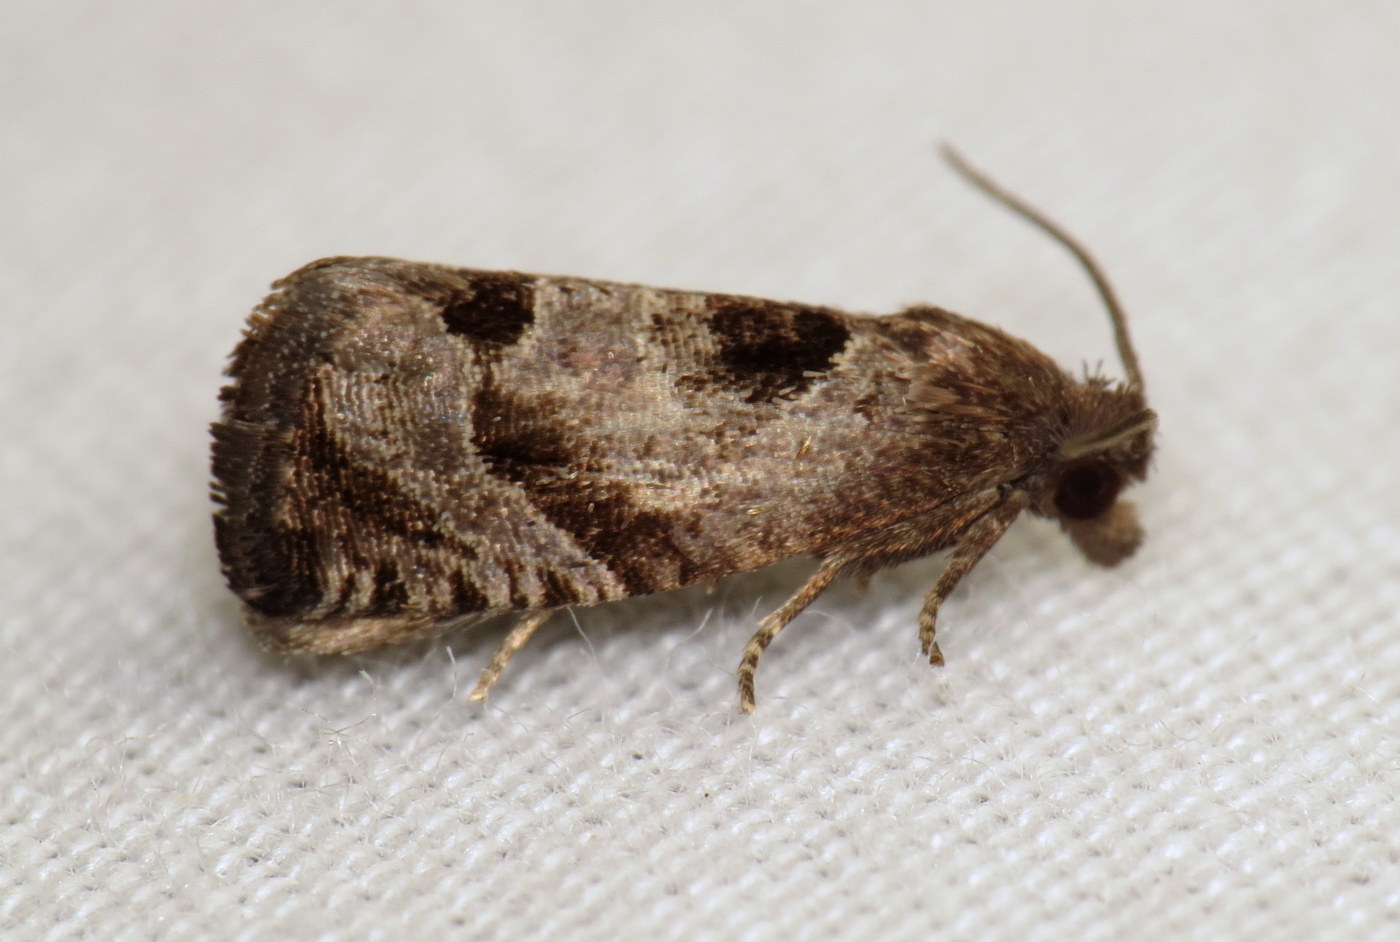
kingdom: Animalia
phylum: Arthropoda
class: Insecta
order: Lepidoptera
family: Tortricidae
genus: Epiblema
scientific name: Epiblema brightonana
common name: Brighton's epiblema moth
